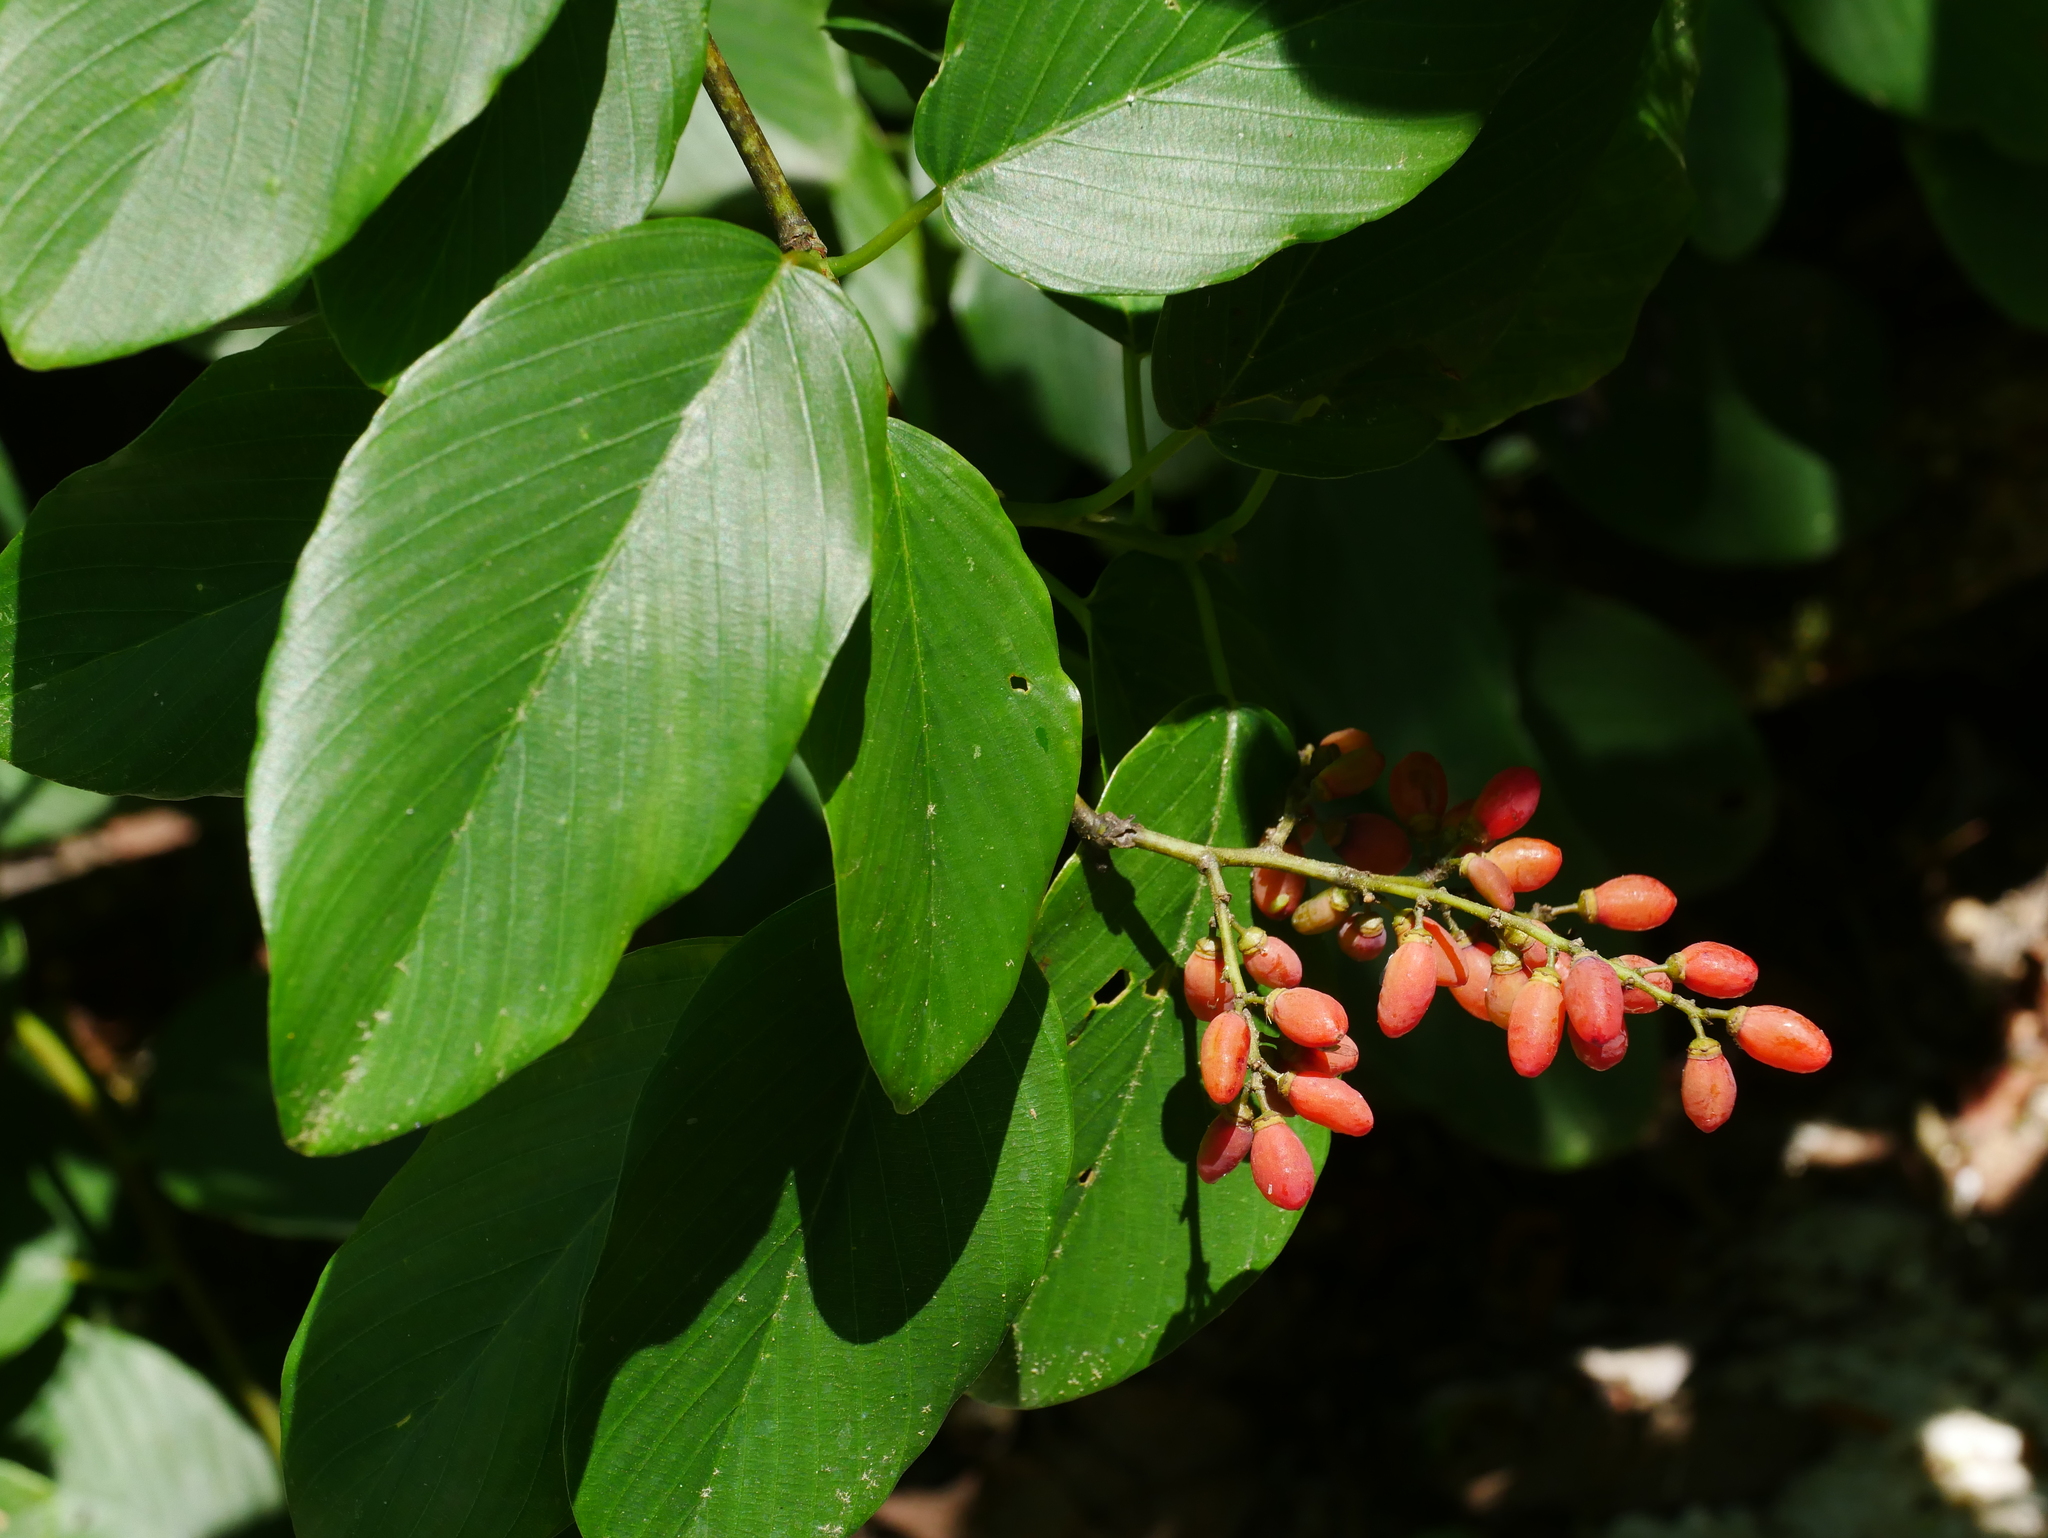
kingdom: Plantae
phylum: Tracheophyta
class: Magnoliopsida
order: Rosales
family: Rhamnaceae
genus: Berchemia
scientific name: Berchemia floribunda
